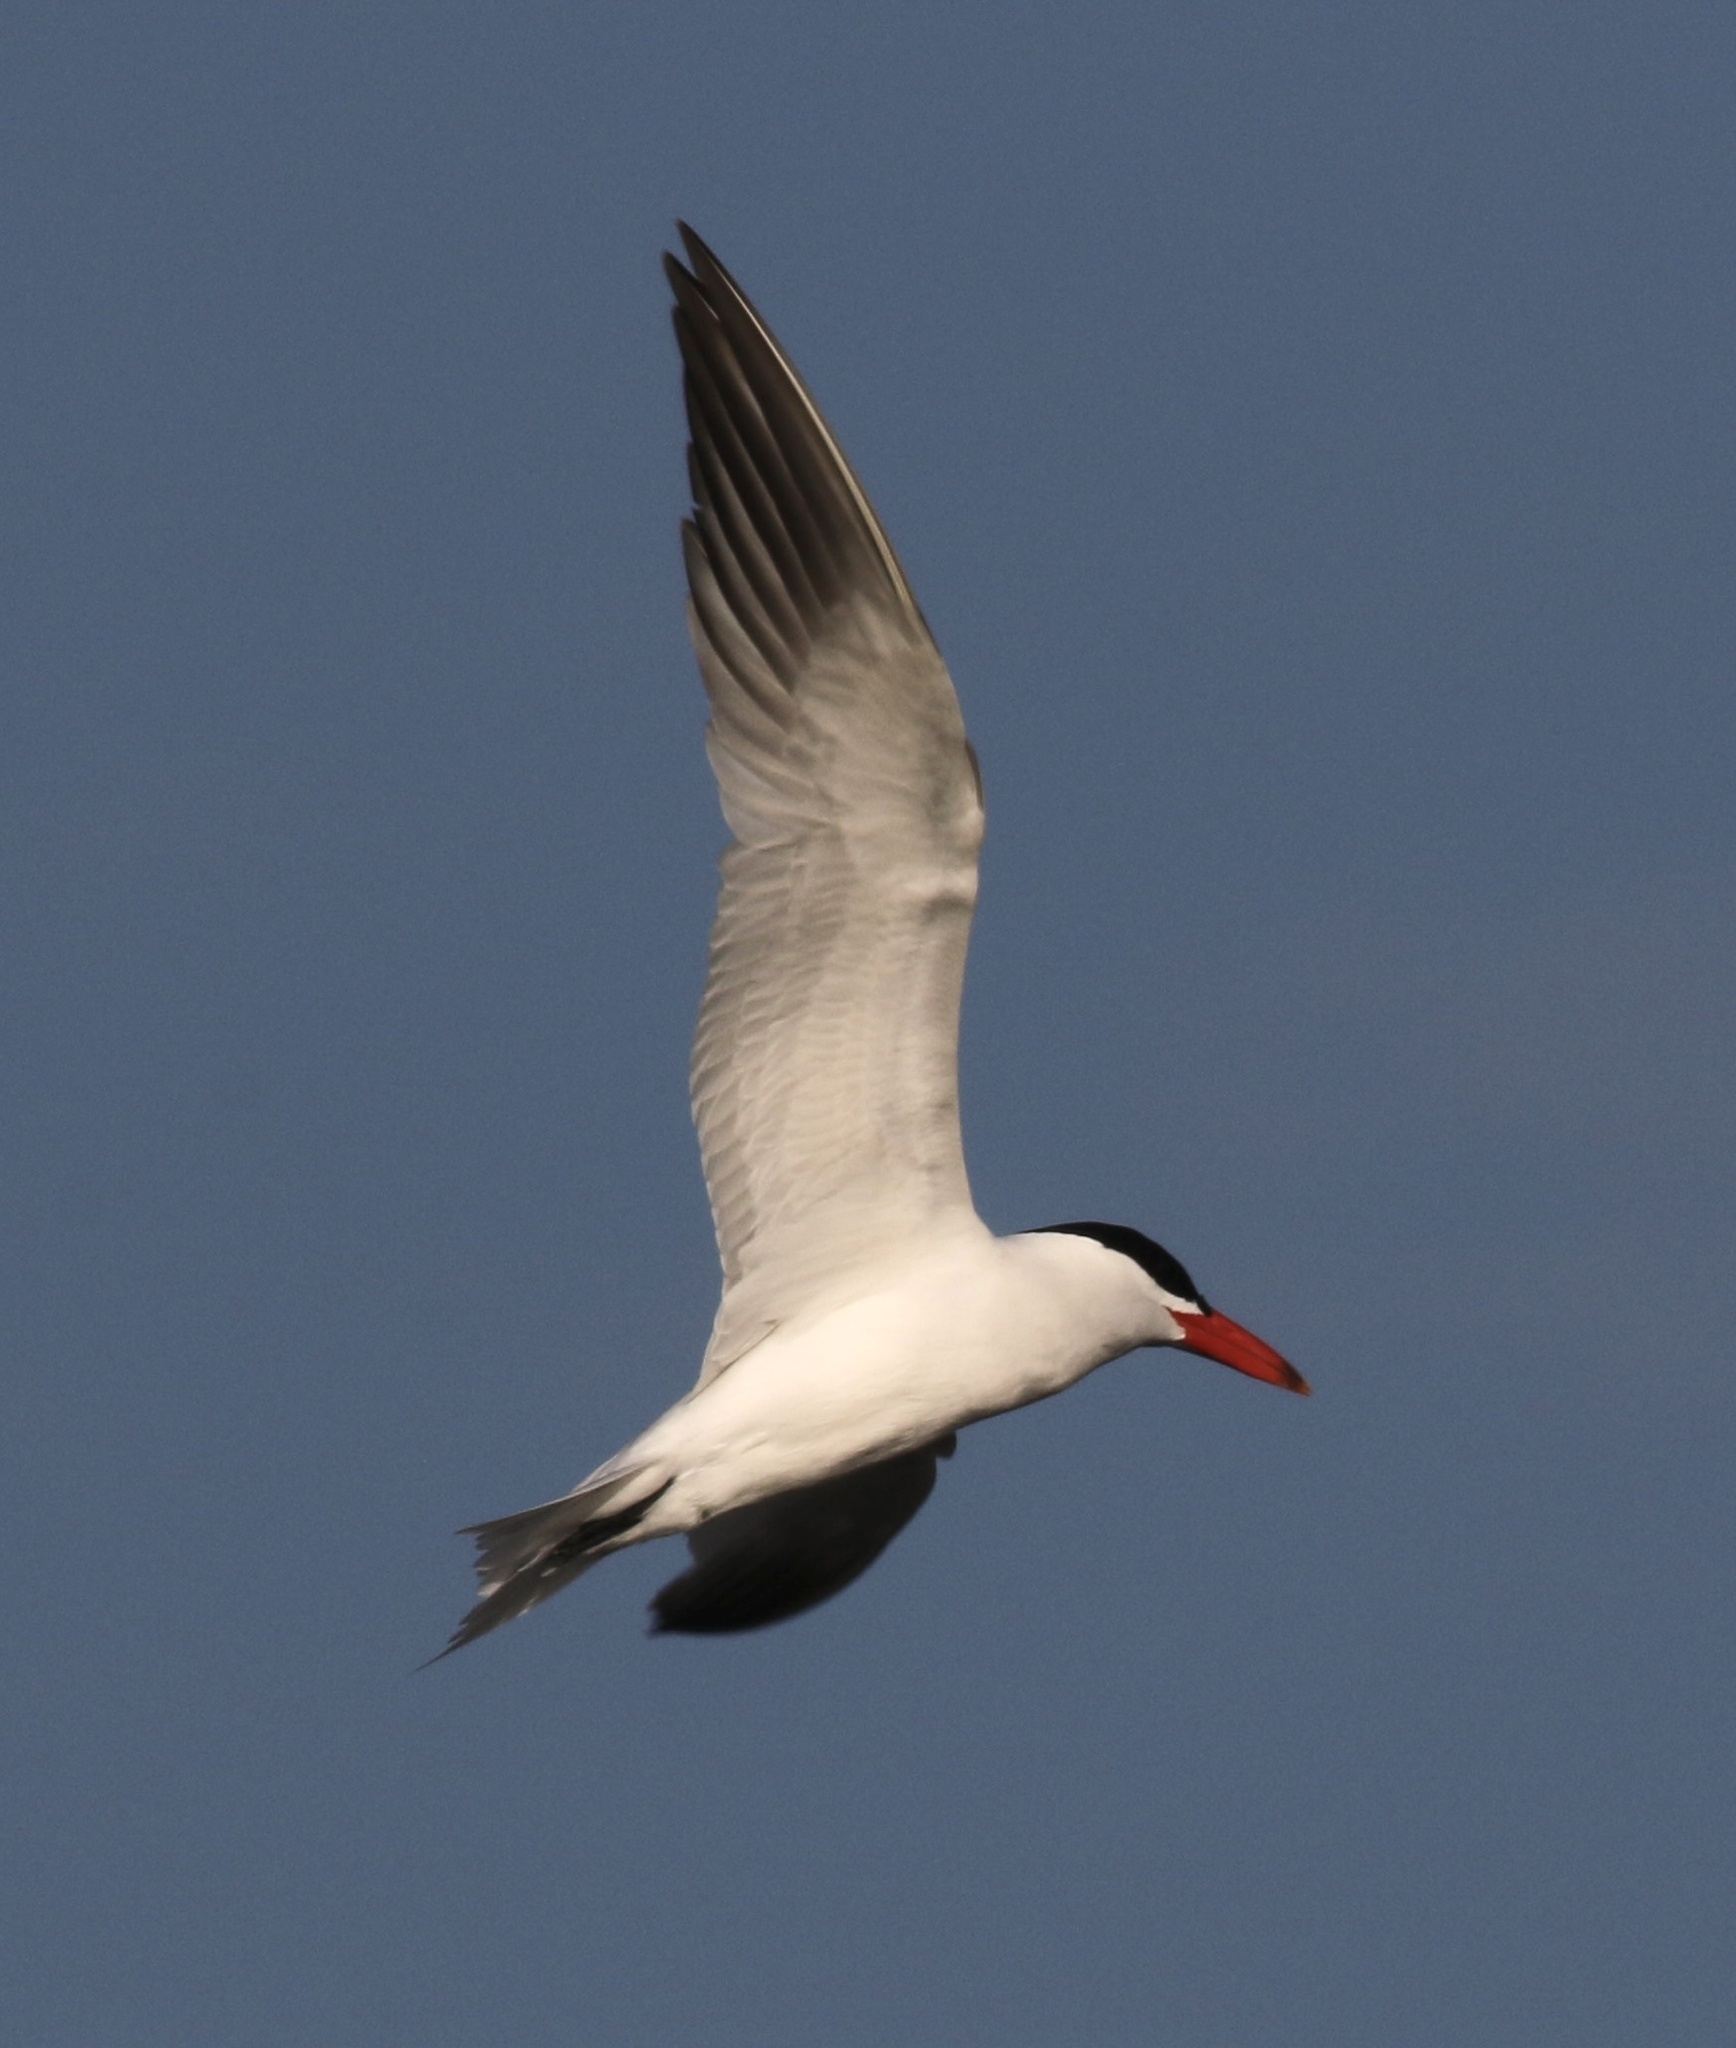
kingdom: Animalia
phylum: Chordata
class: Aves
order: Charadriiformes
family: Laridae
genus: Hydroprogne
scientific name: Hydroprogne caspia
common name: Caspian tern
